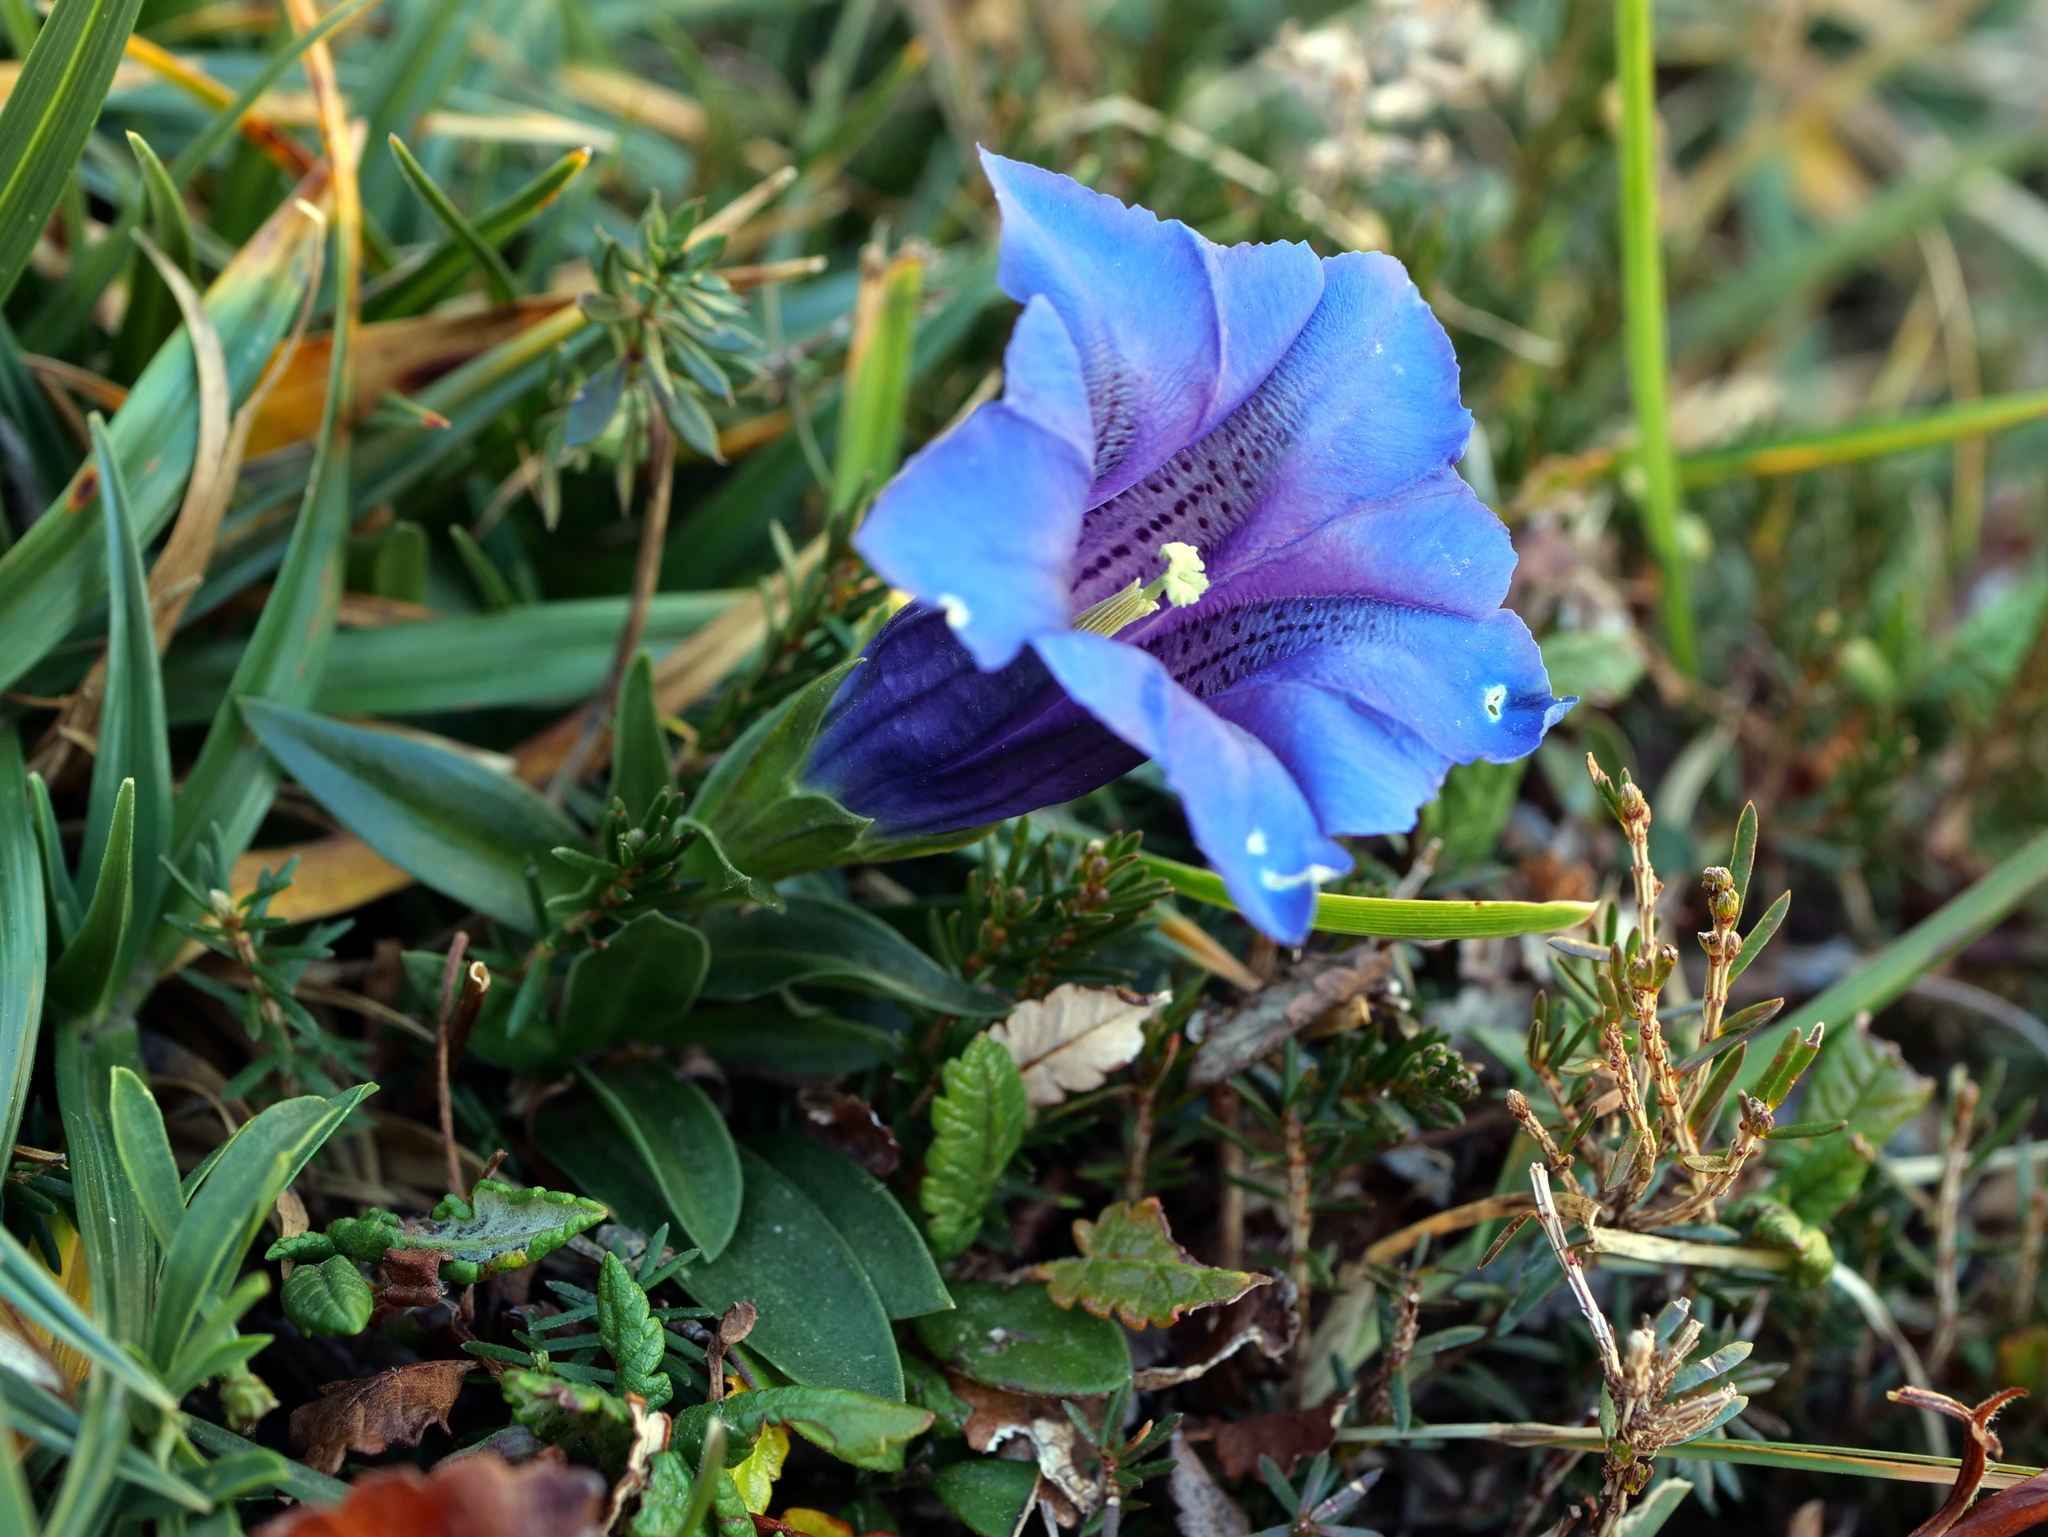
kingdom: Plantae
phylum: Tracheophyta
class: Magnoliopsida
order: Gentianales
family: Gentianaceae
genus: Gentiana
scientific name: Gentiana clusii
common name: Trumpet gentian
